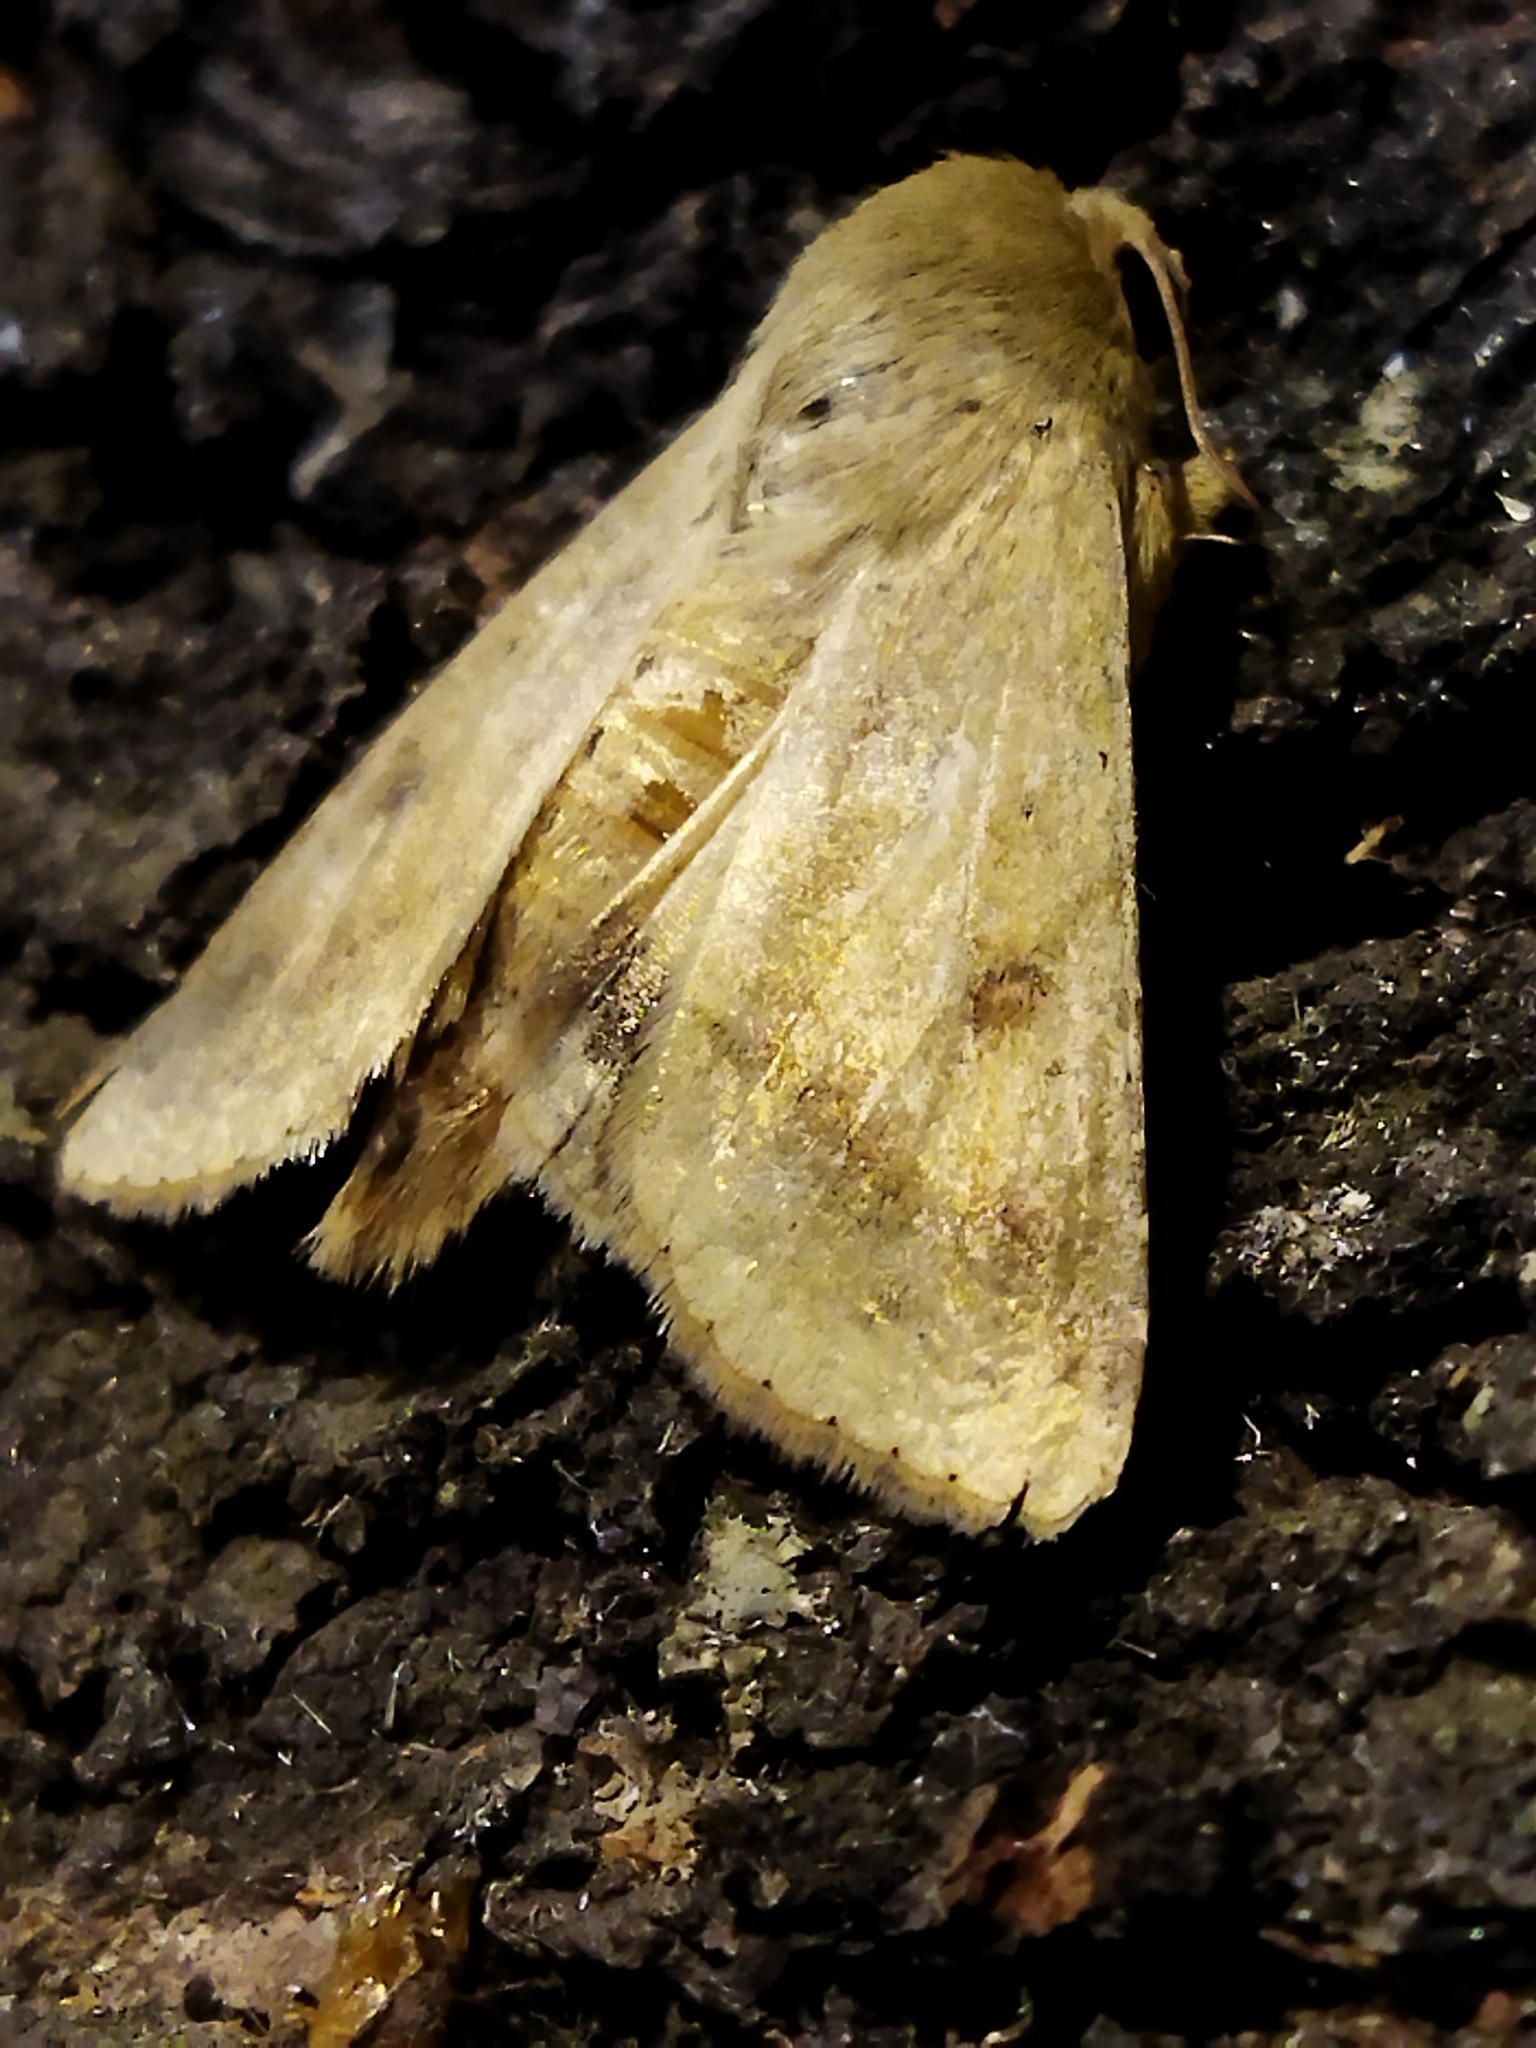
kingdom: Animalia
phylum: Arthropoda
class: Insecta
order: Lepidoptera
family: Noctuidae
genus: Helicoverpa
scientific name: Helicoverpa armigera
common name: Cotton bollworm
